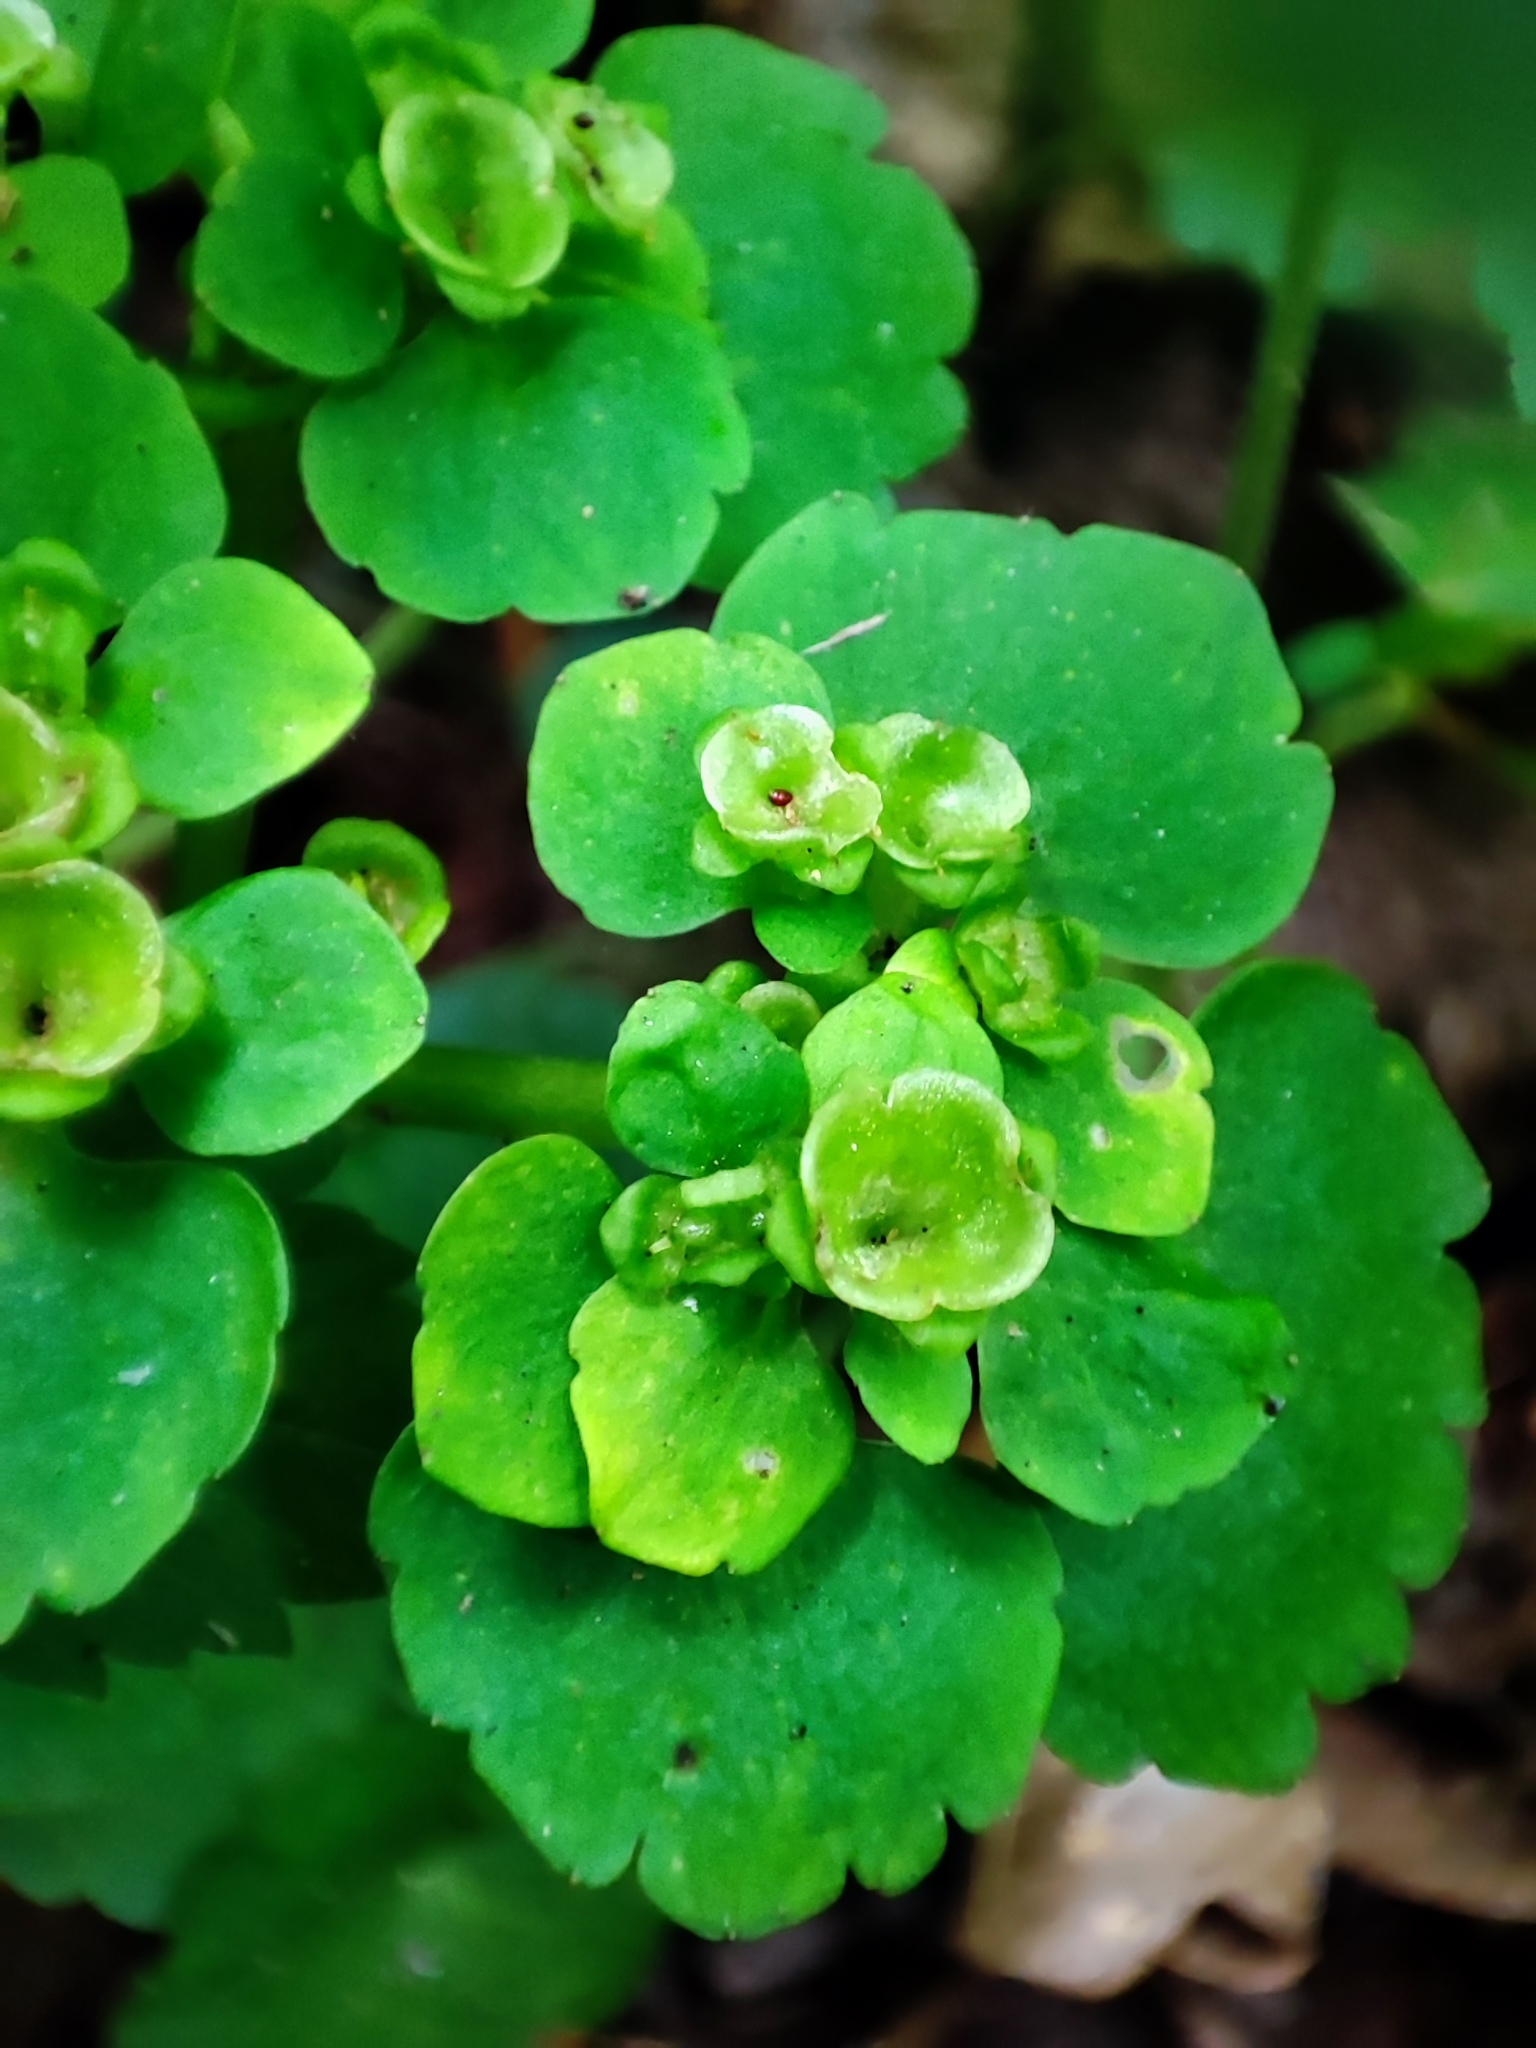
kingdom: Plantae
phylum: Tracheophyta
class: Magnoliopsida
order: Saxifragales
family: Saxifragaceae
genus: Chrysosplenium
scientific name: Chrysosplenium alternifolium
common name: Alternate-leaved golden-saxifrage
